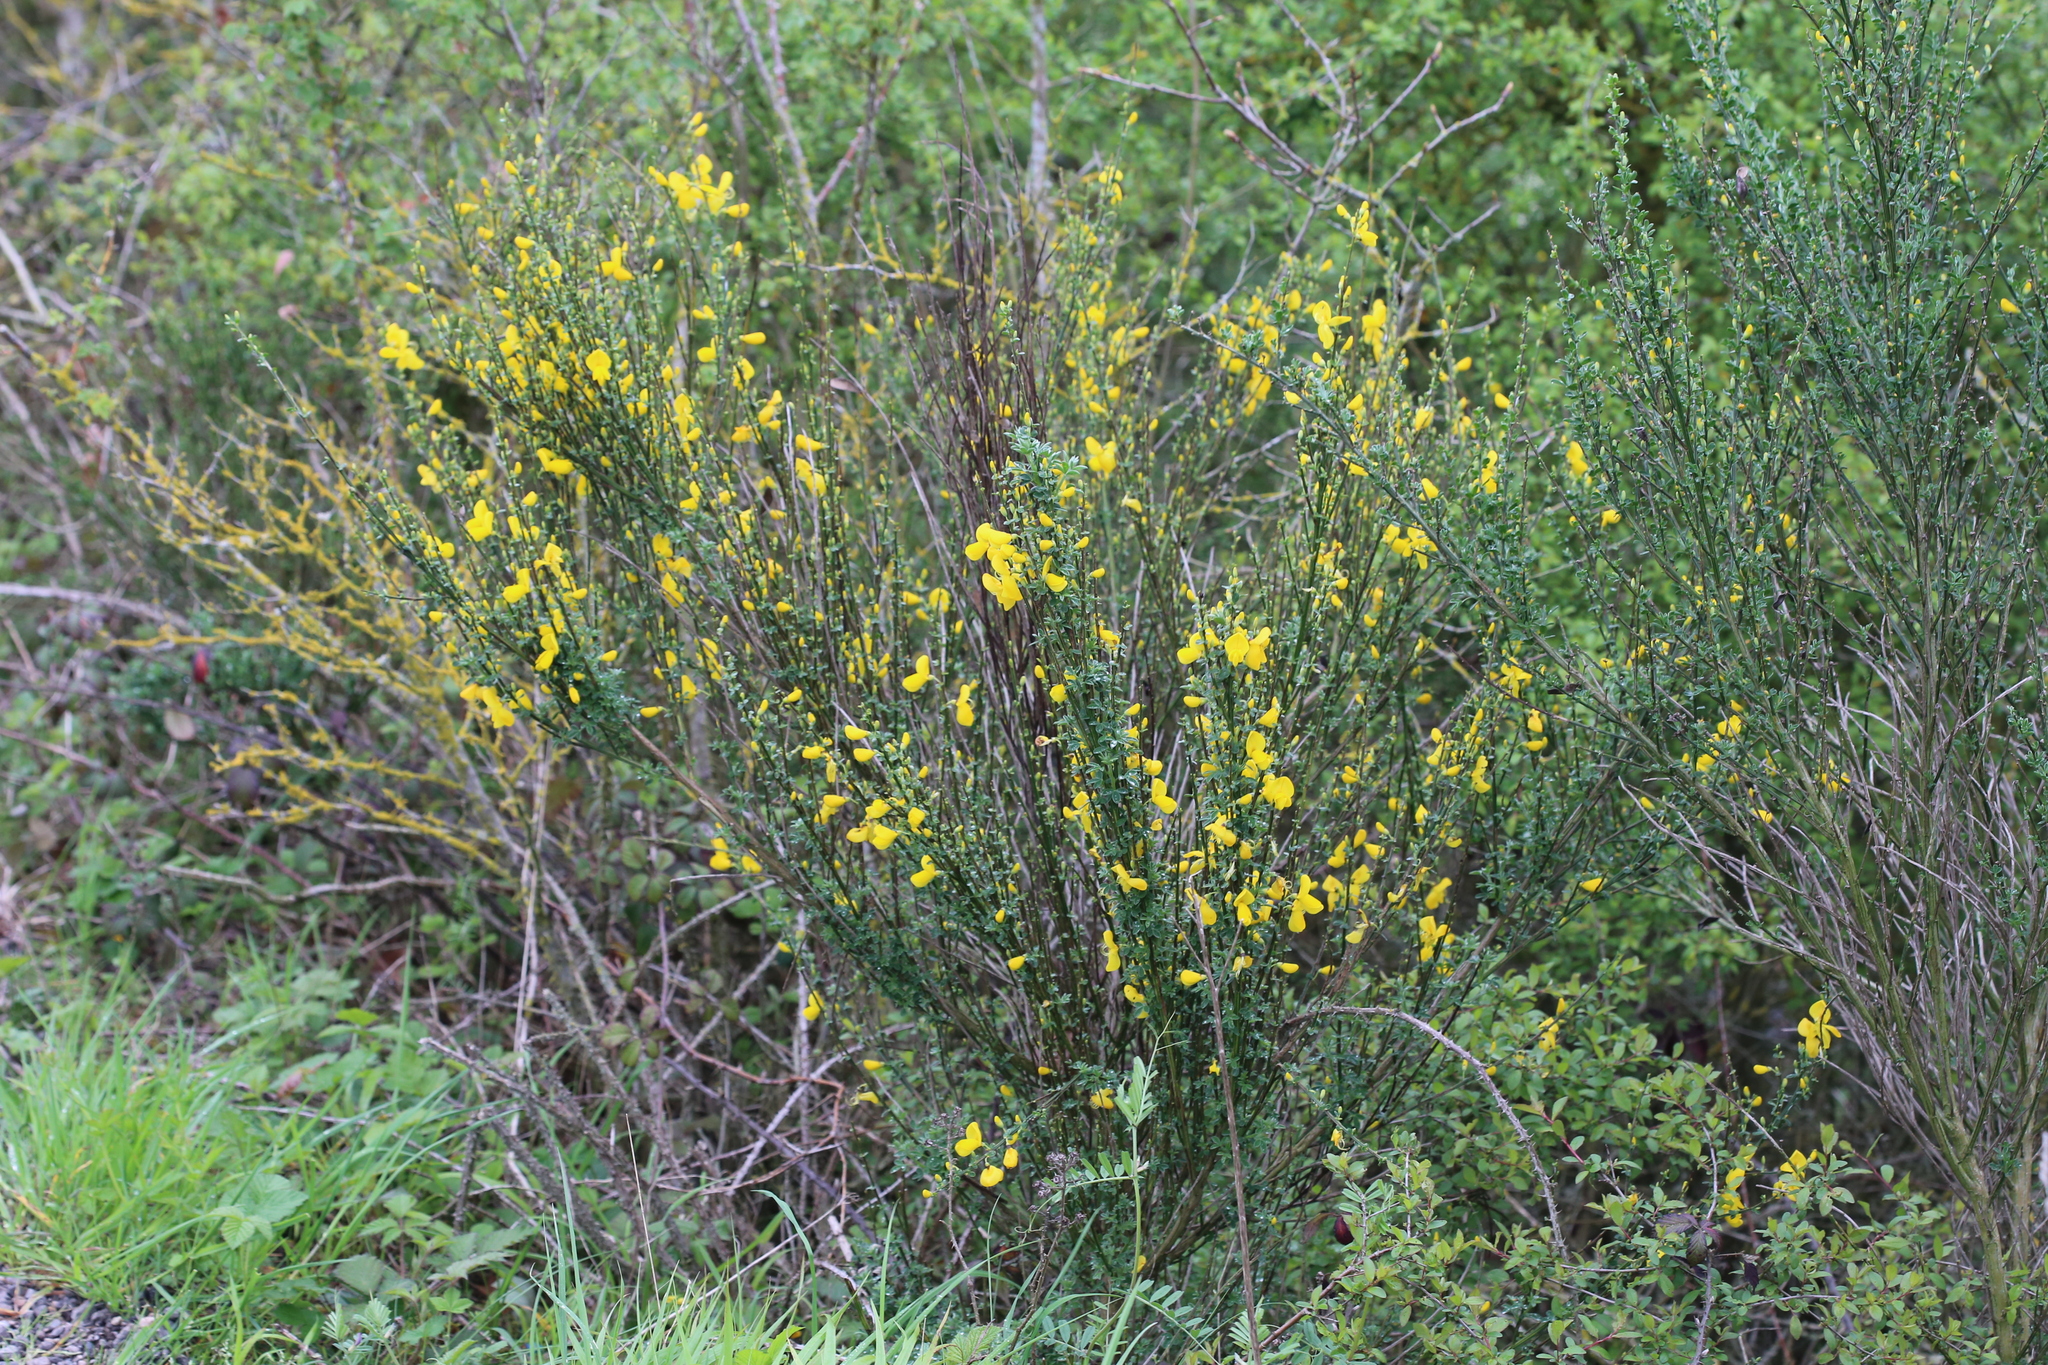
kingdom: Plantae
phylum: Tracheophyta
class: Magnoliopsida
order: Fabales
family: Fabaceae
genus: Cytisus
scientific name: Cytisus scoparius
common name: Scotch broom
